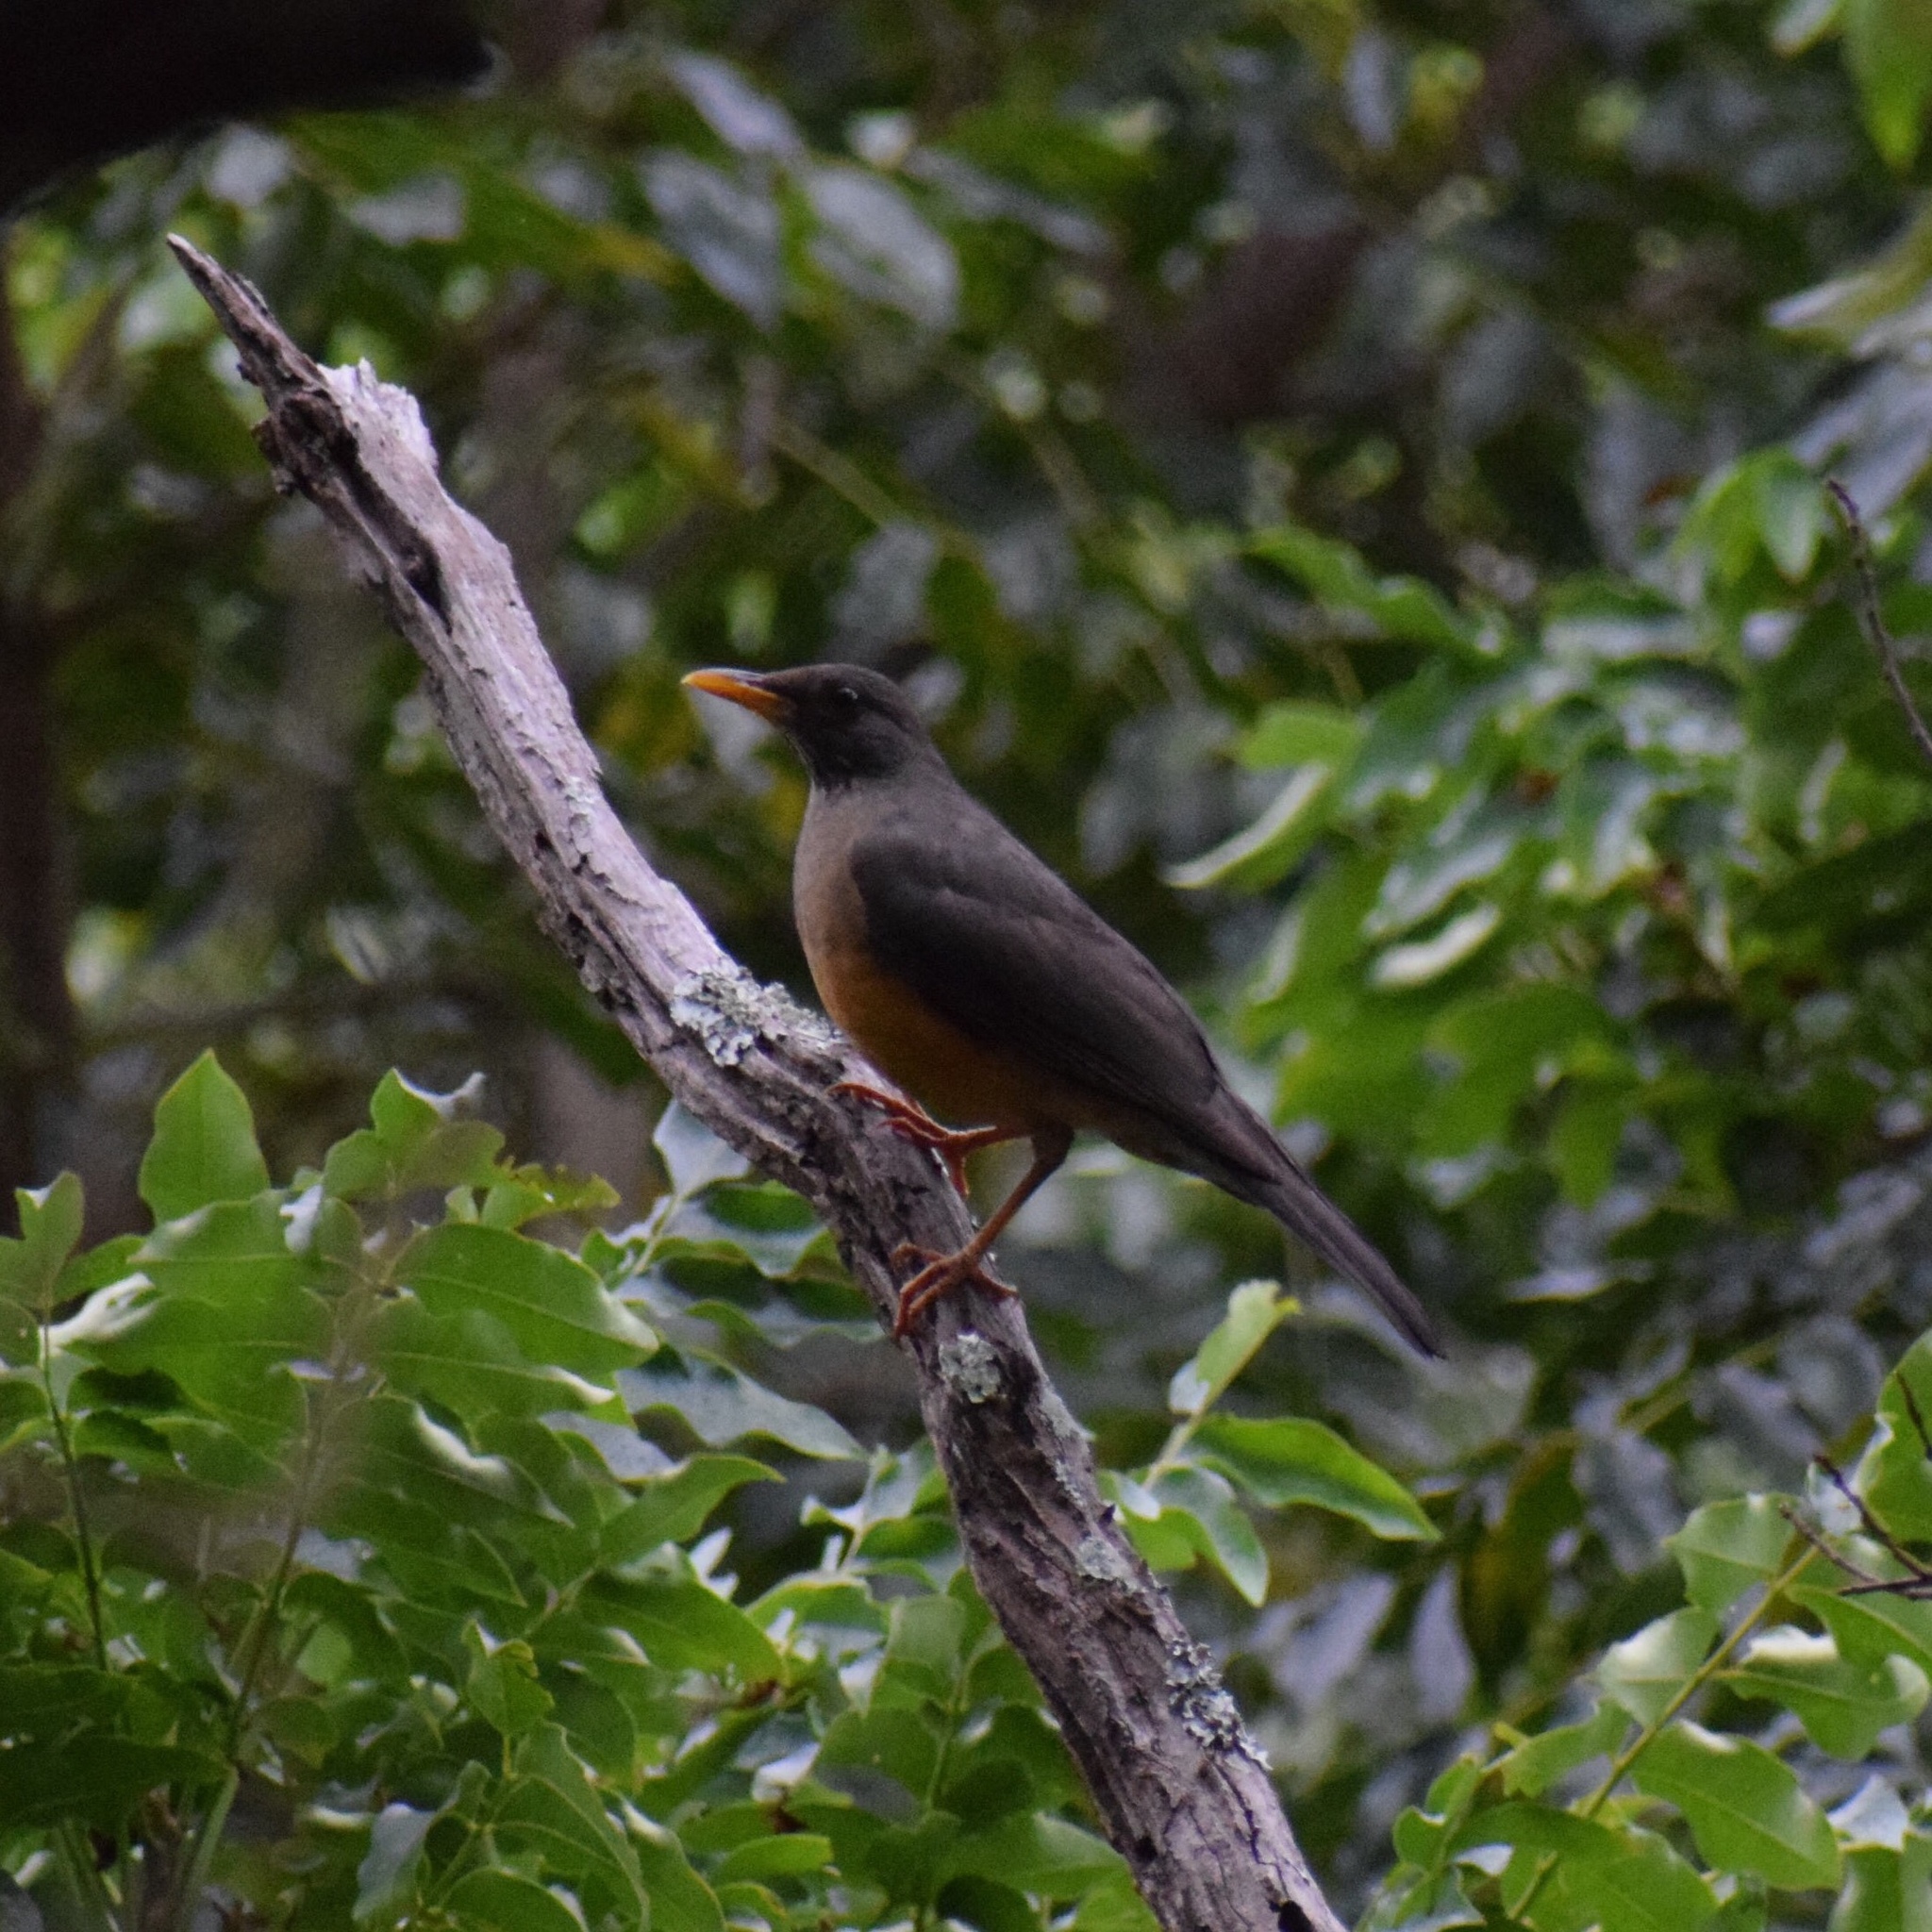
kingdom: Animalia
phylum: Chordata
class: Aves
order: Passeriformes
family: Turdidae
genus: Turdus
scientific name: Turdus olivaceus
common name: Olive thrush
